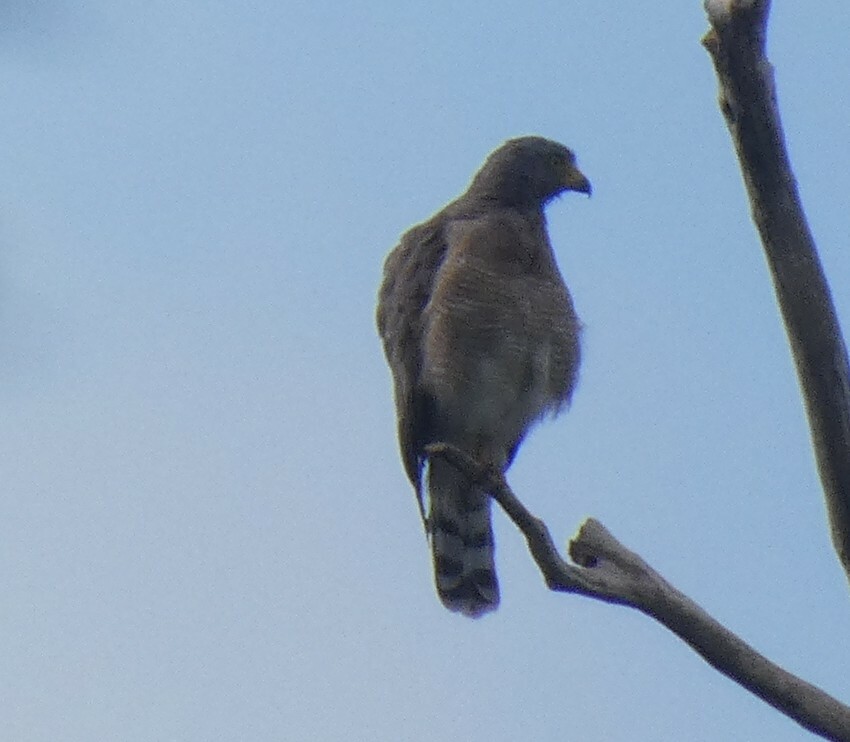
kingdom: Animalia
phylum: Chordata
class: Aves
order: Accipitriformes
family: Accipitridae
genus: Rupornis
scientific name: Rupornis magnirostris
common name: Roadside hawk
